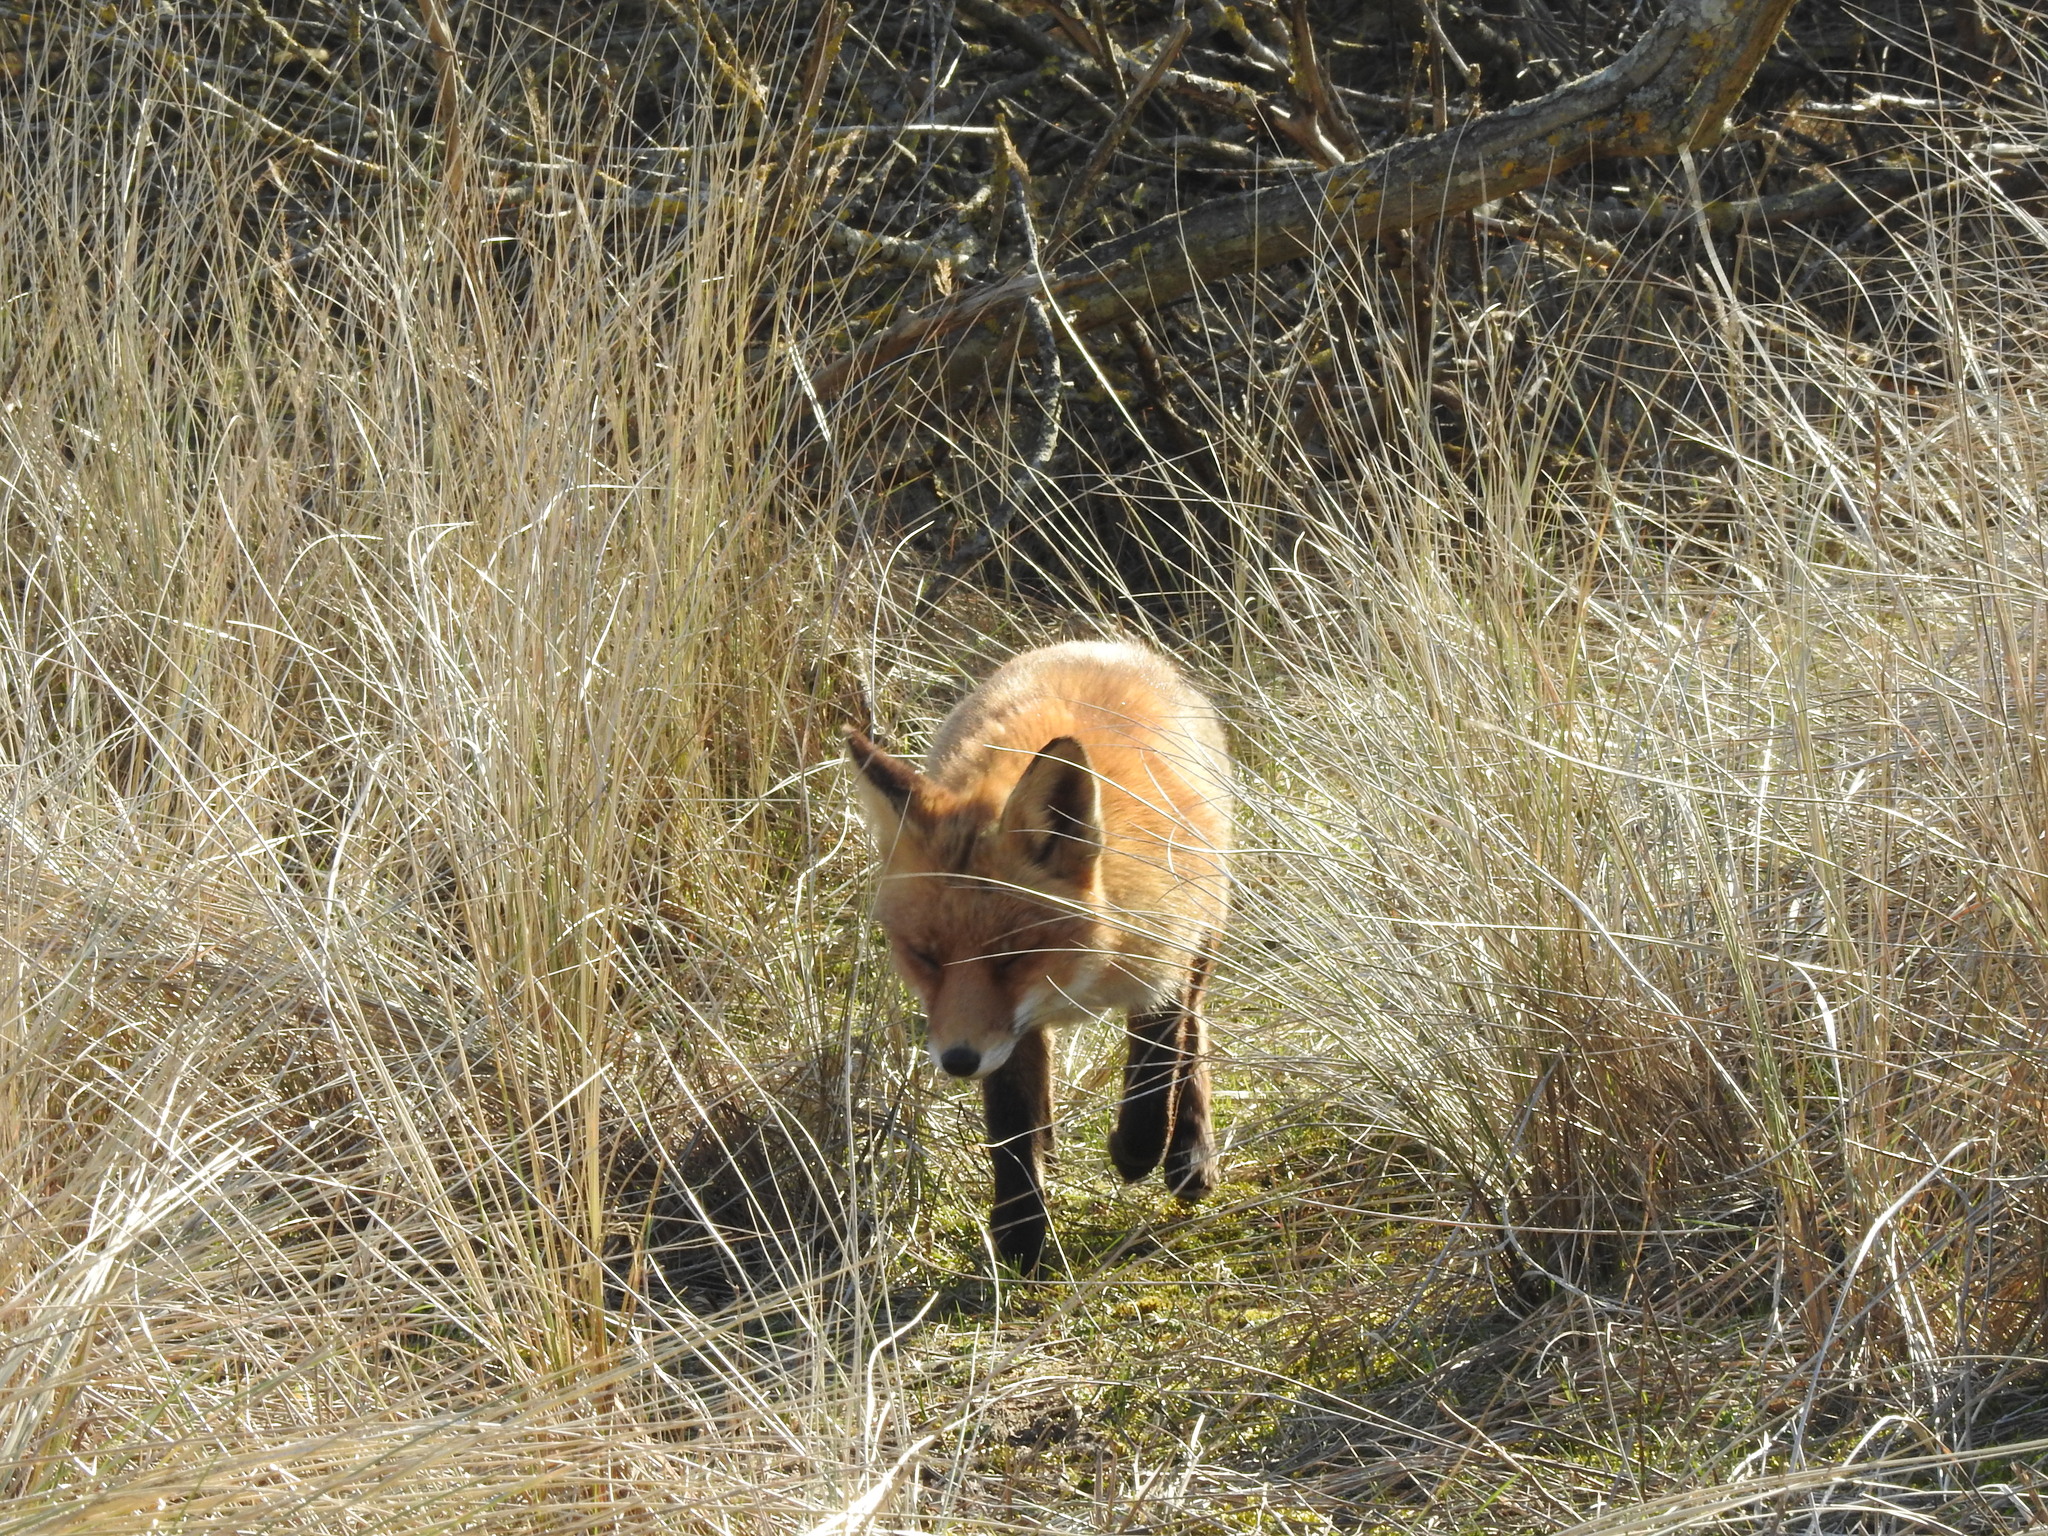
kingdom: Animalia
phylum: Chordata
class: Mammalia
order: Carnivora
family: Canidae
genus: Vulpes
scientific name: Vulpes vulpes
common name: Red fox
